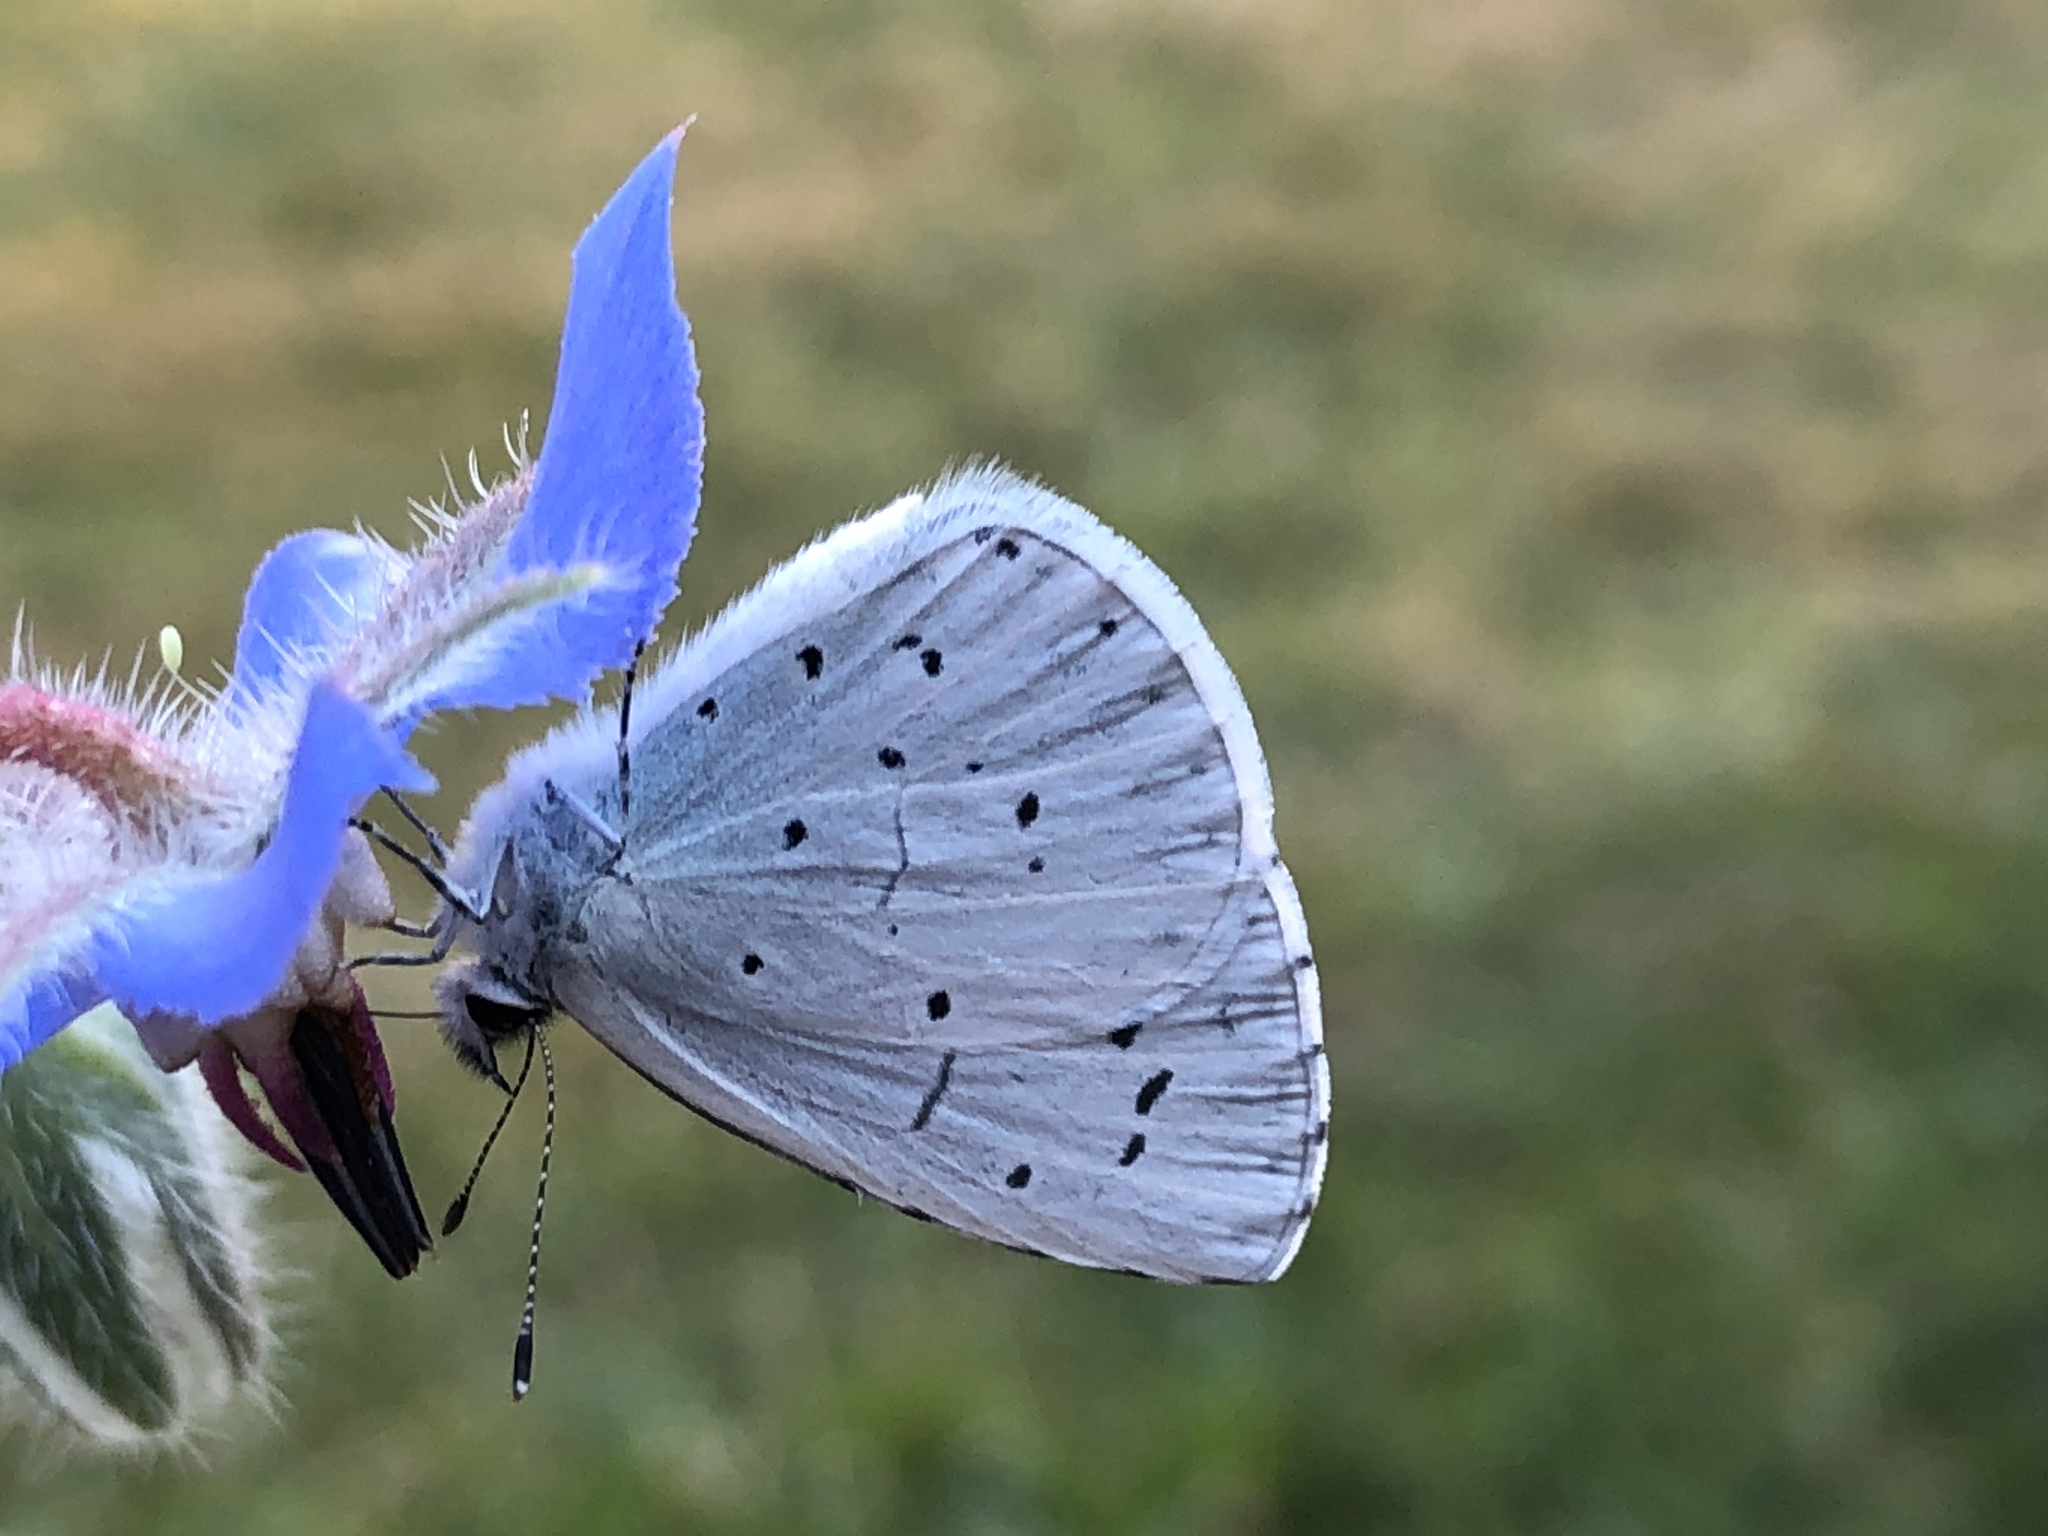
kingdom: Animalia
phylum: Arthropoda
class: Insecta
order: Lepidoptera
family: Lycaenidae
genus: Celastrina
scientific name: Celastrina argiolus
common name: Holly blue
